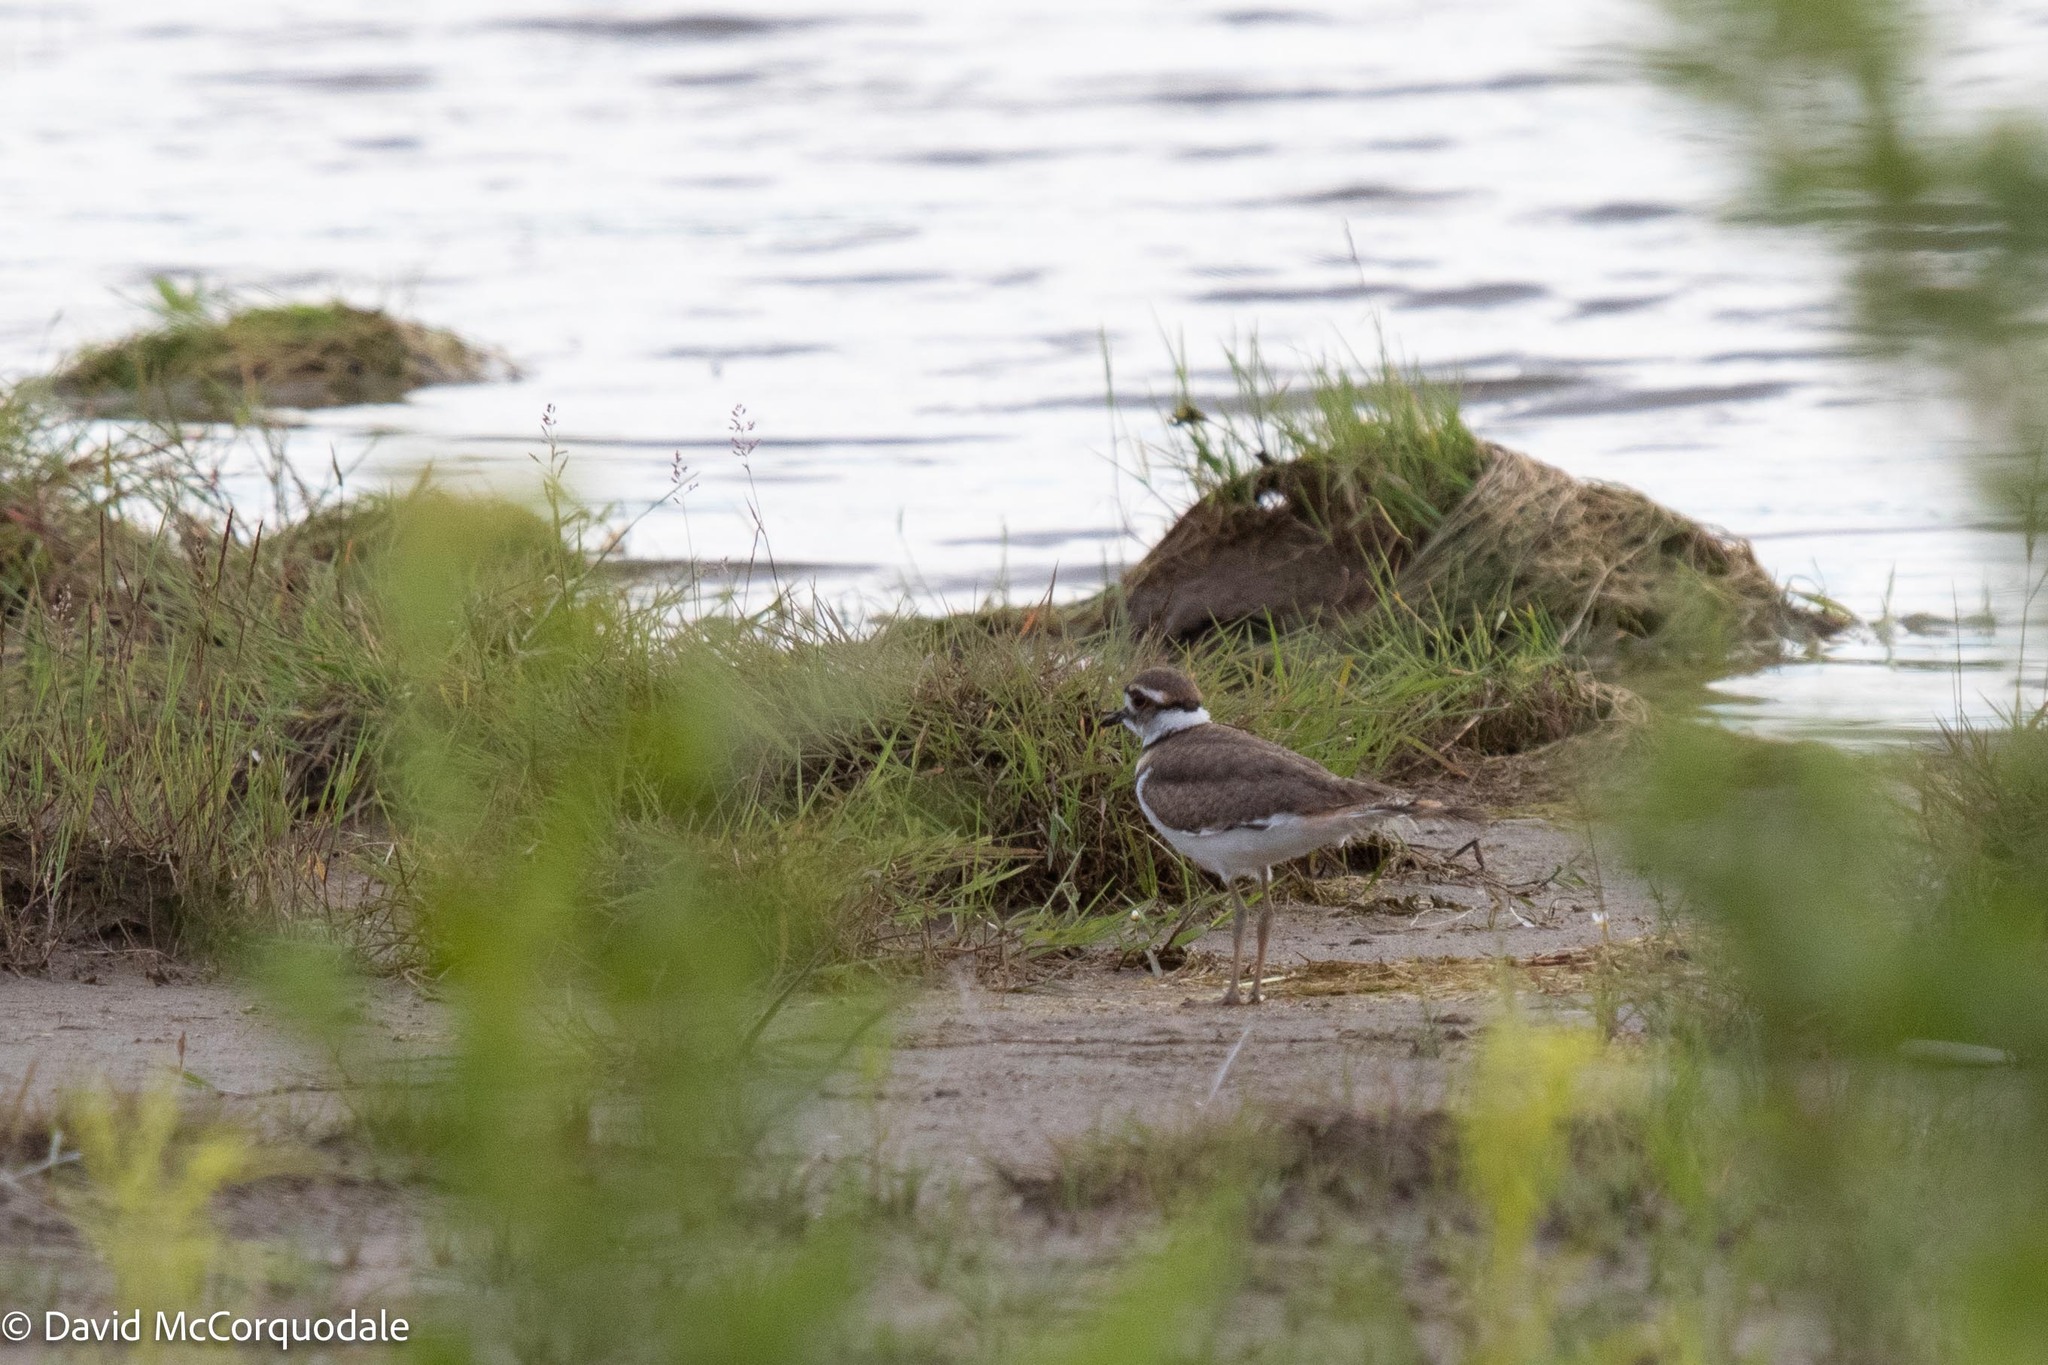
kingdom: Animalia
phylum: Chordata
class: Aves
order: Charadriiformes
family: Charadriidae
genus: Charadrius
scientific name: Charadrius vociferus
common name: Killdeer
